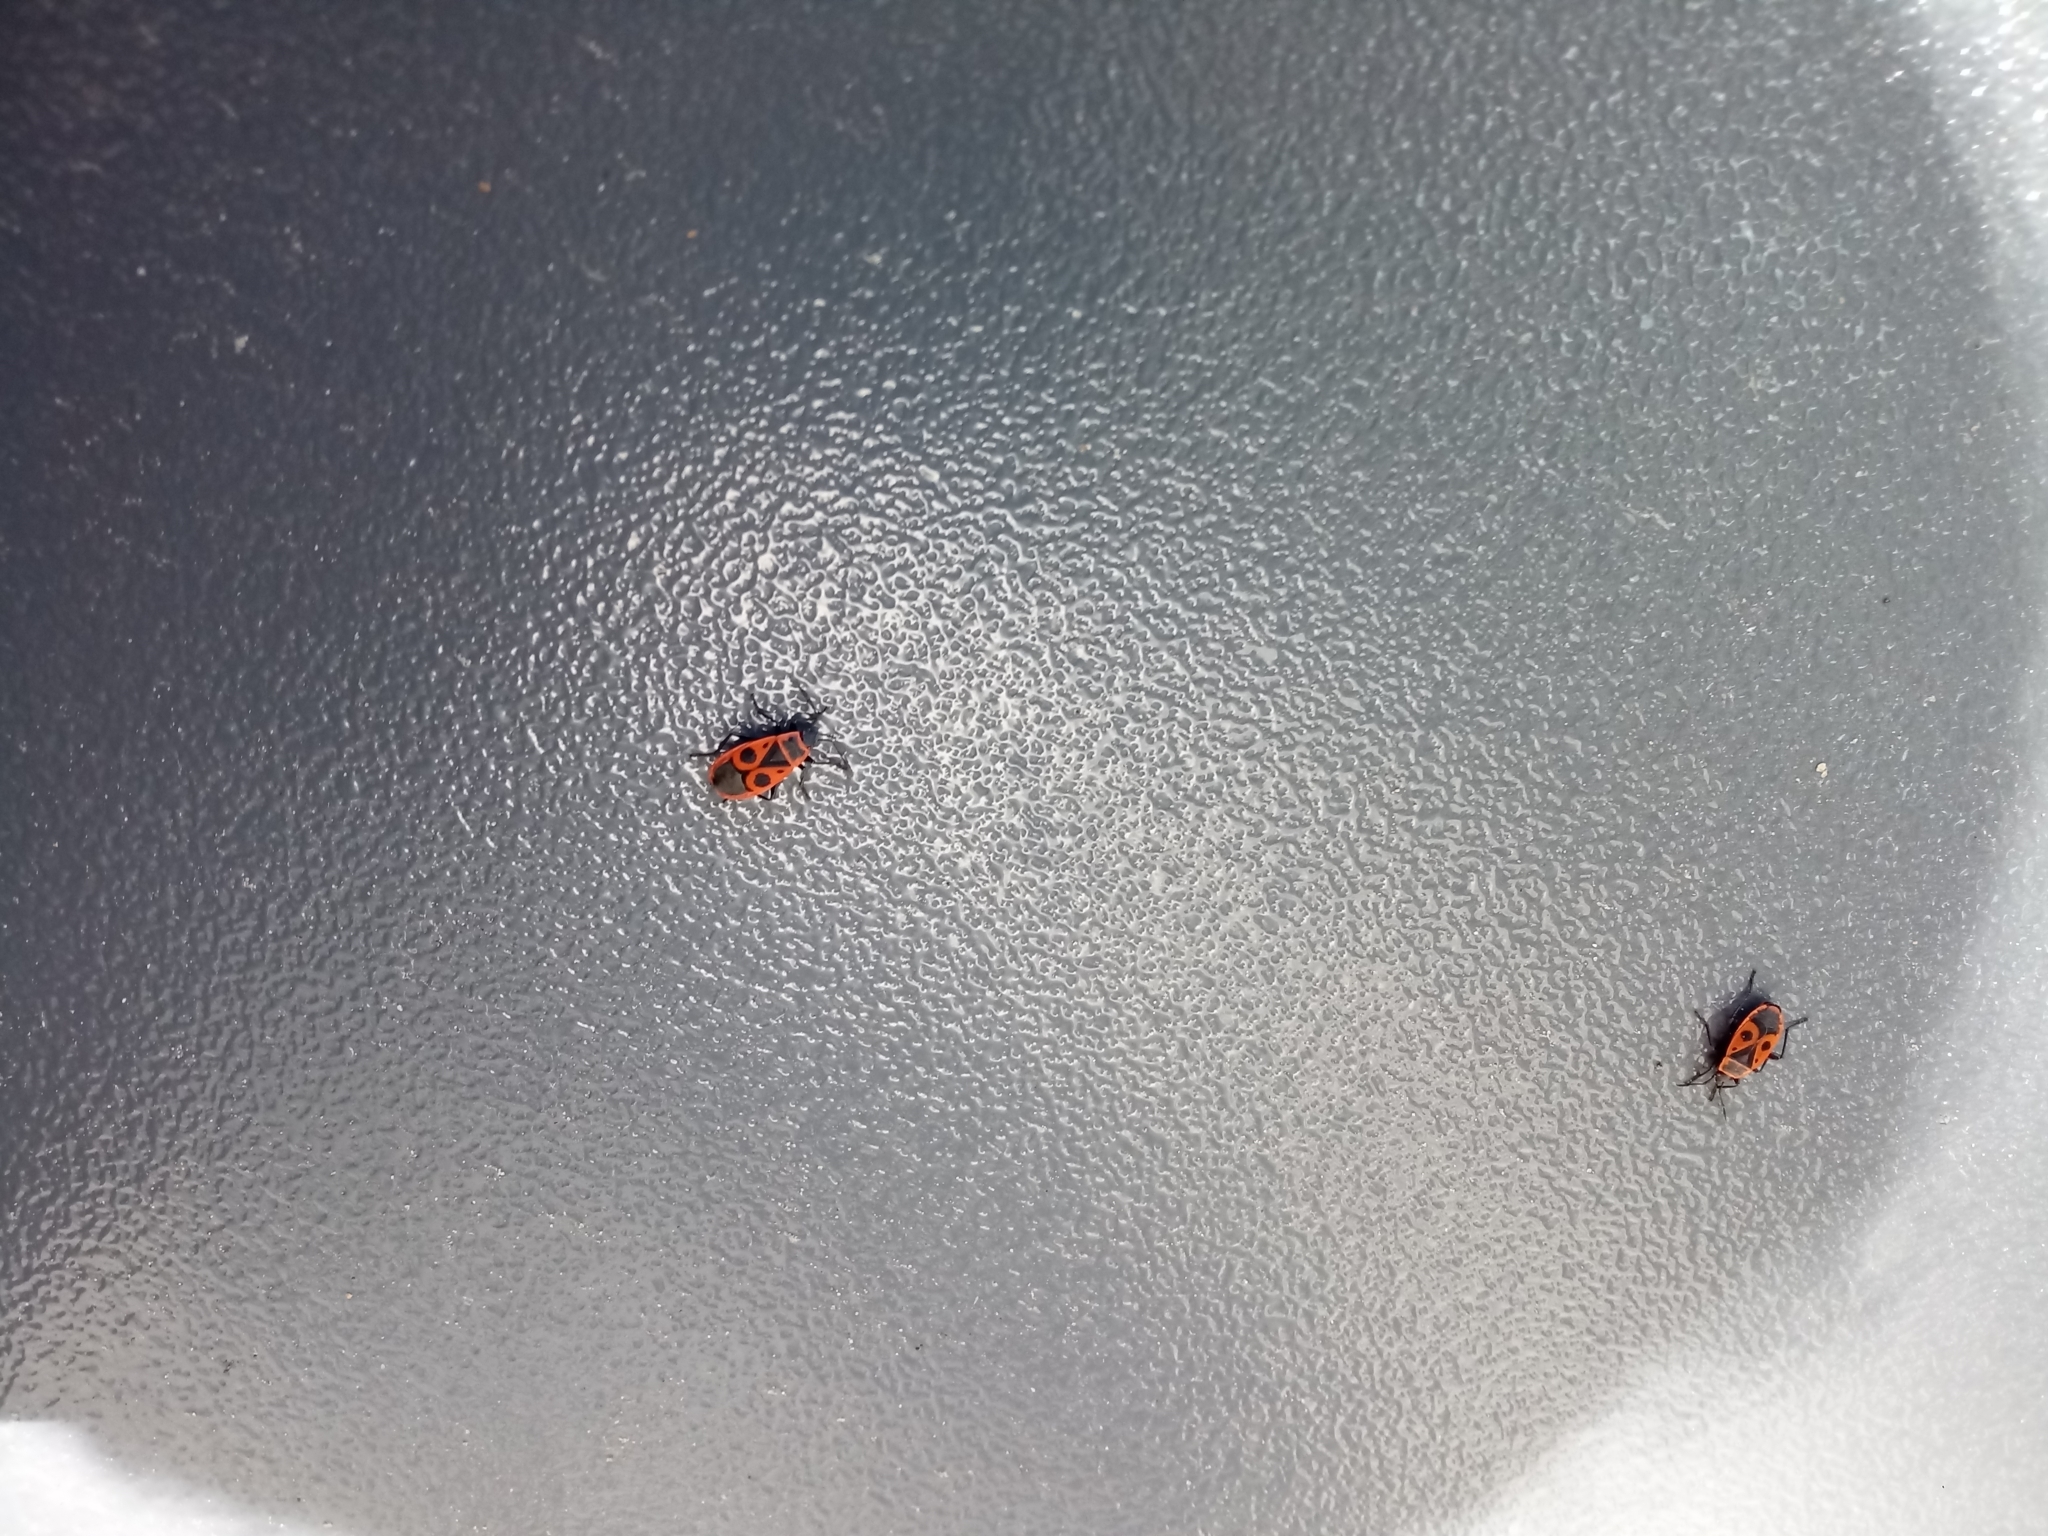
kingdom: Animalia
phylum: Arthropoda
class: Insecta
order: Hemiptera
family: Pyrrhocoridae
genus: Pyrrhocoris
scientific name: Pyrrhocoris apterus
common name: Firebug
